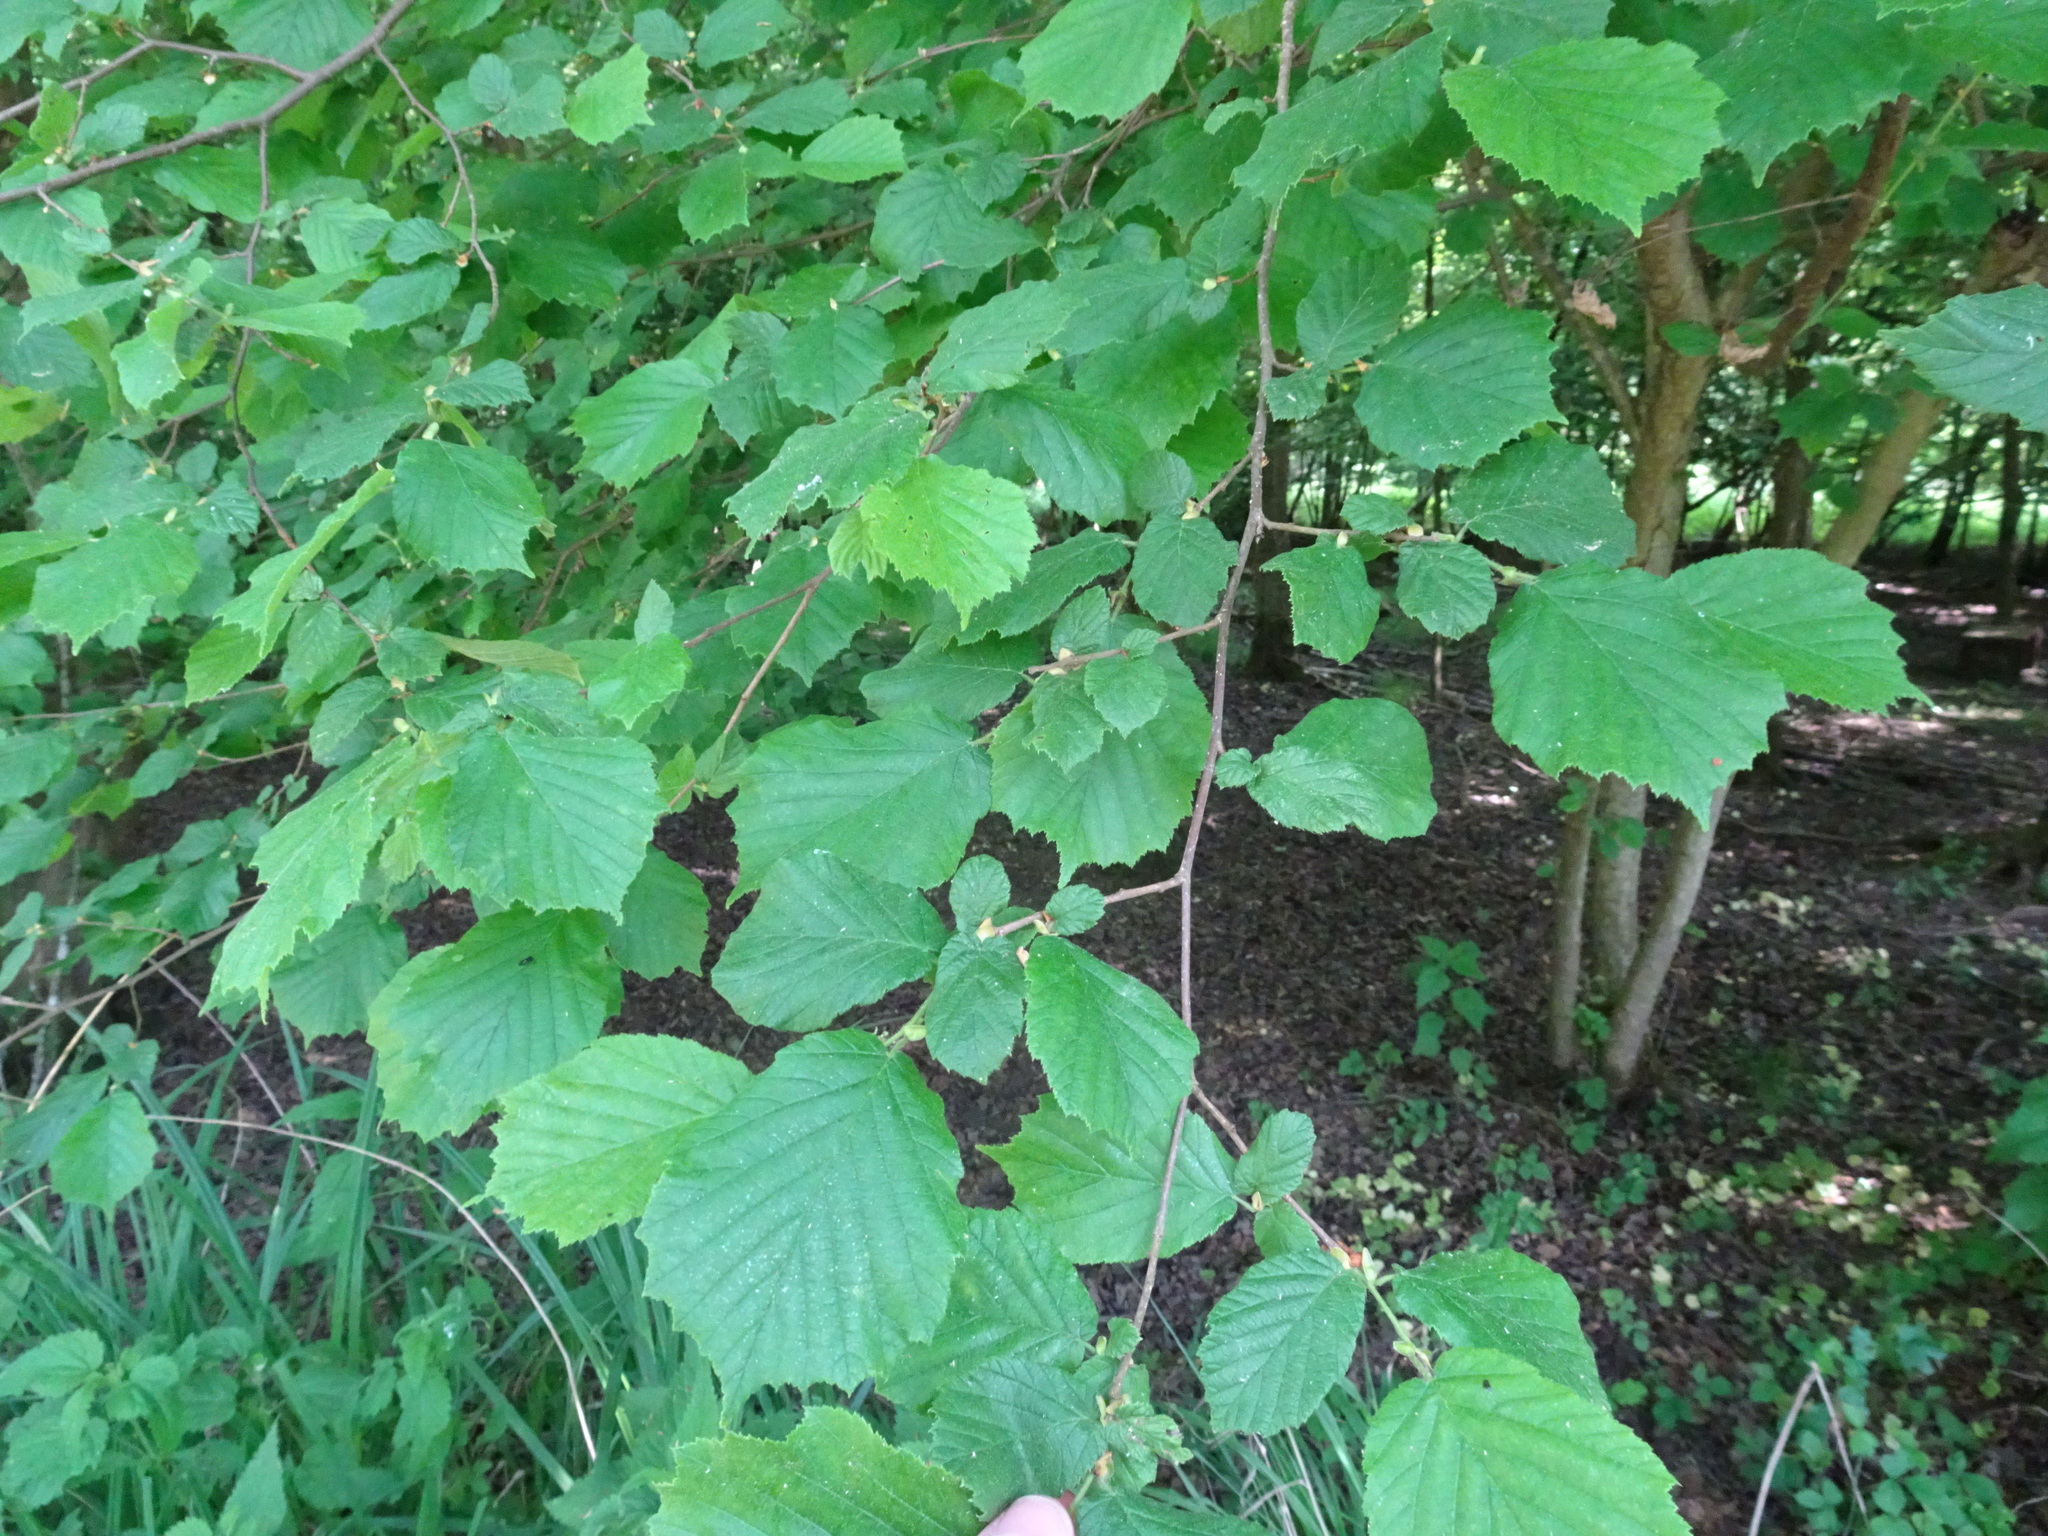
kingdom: Plantae
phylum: Tracheophyta
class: Magnoliopsida
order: Fagales
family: Betulaceae
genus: Corylus
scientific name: Corylus avellana
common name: European hazel
